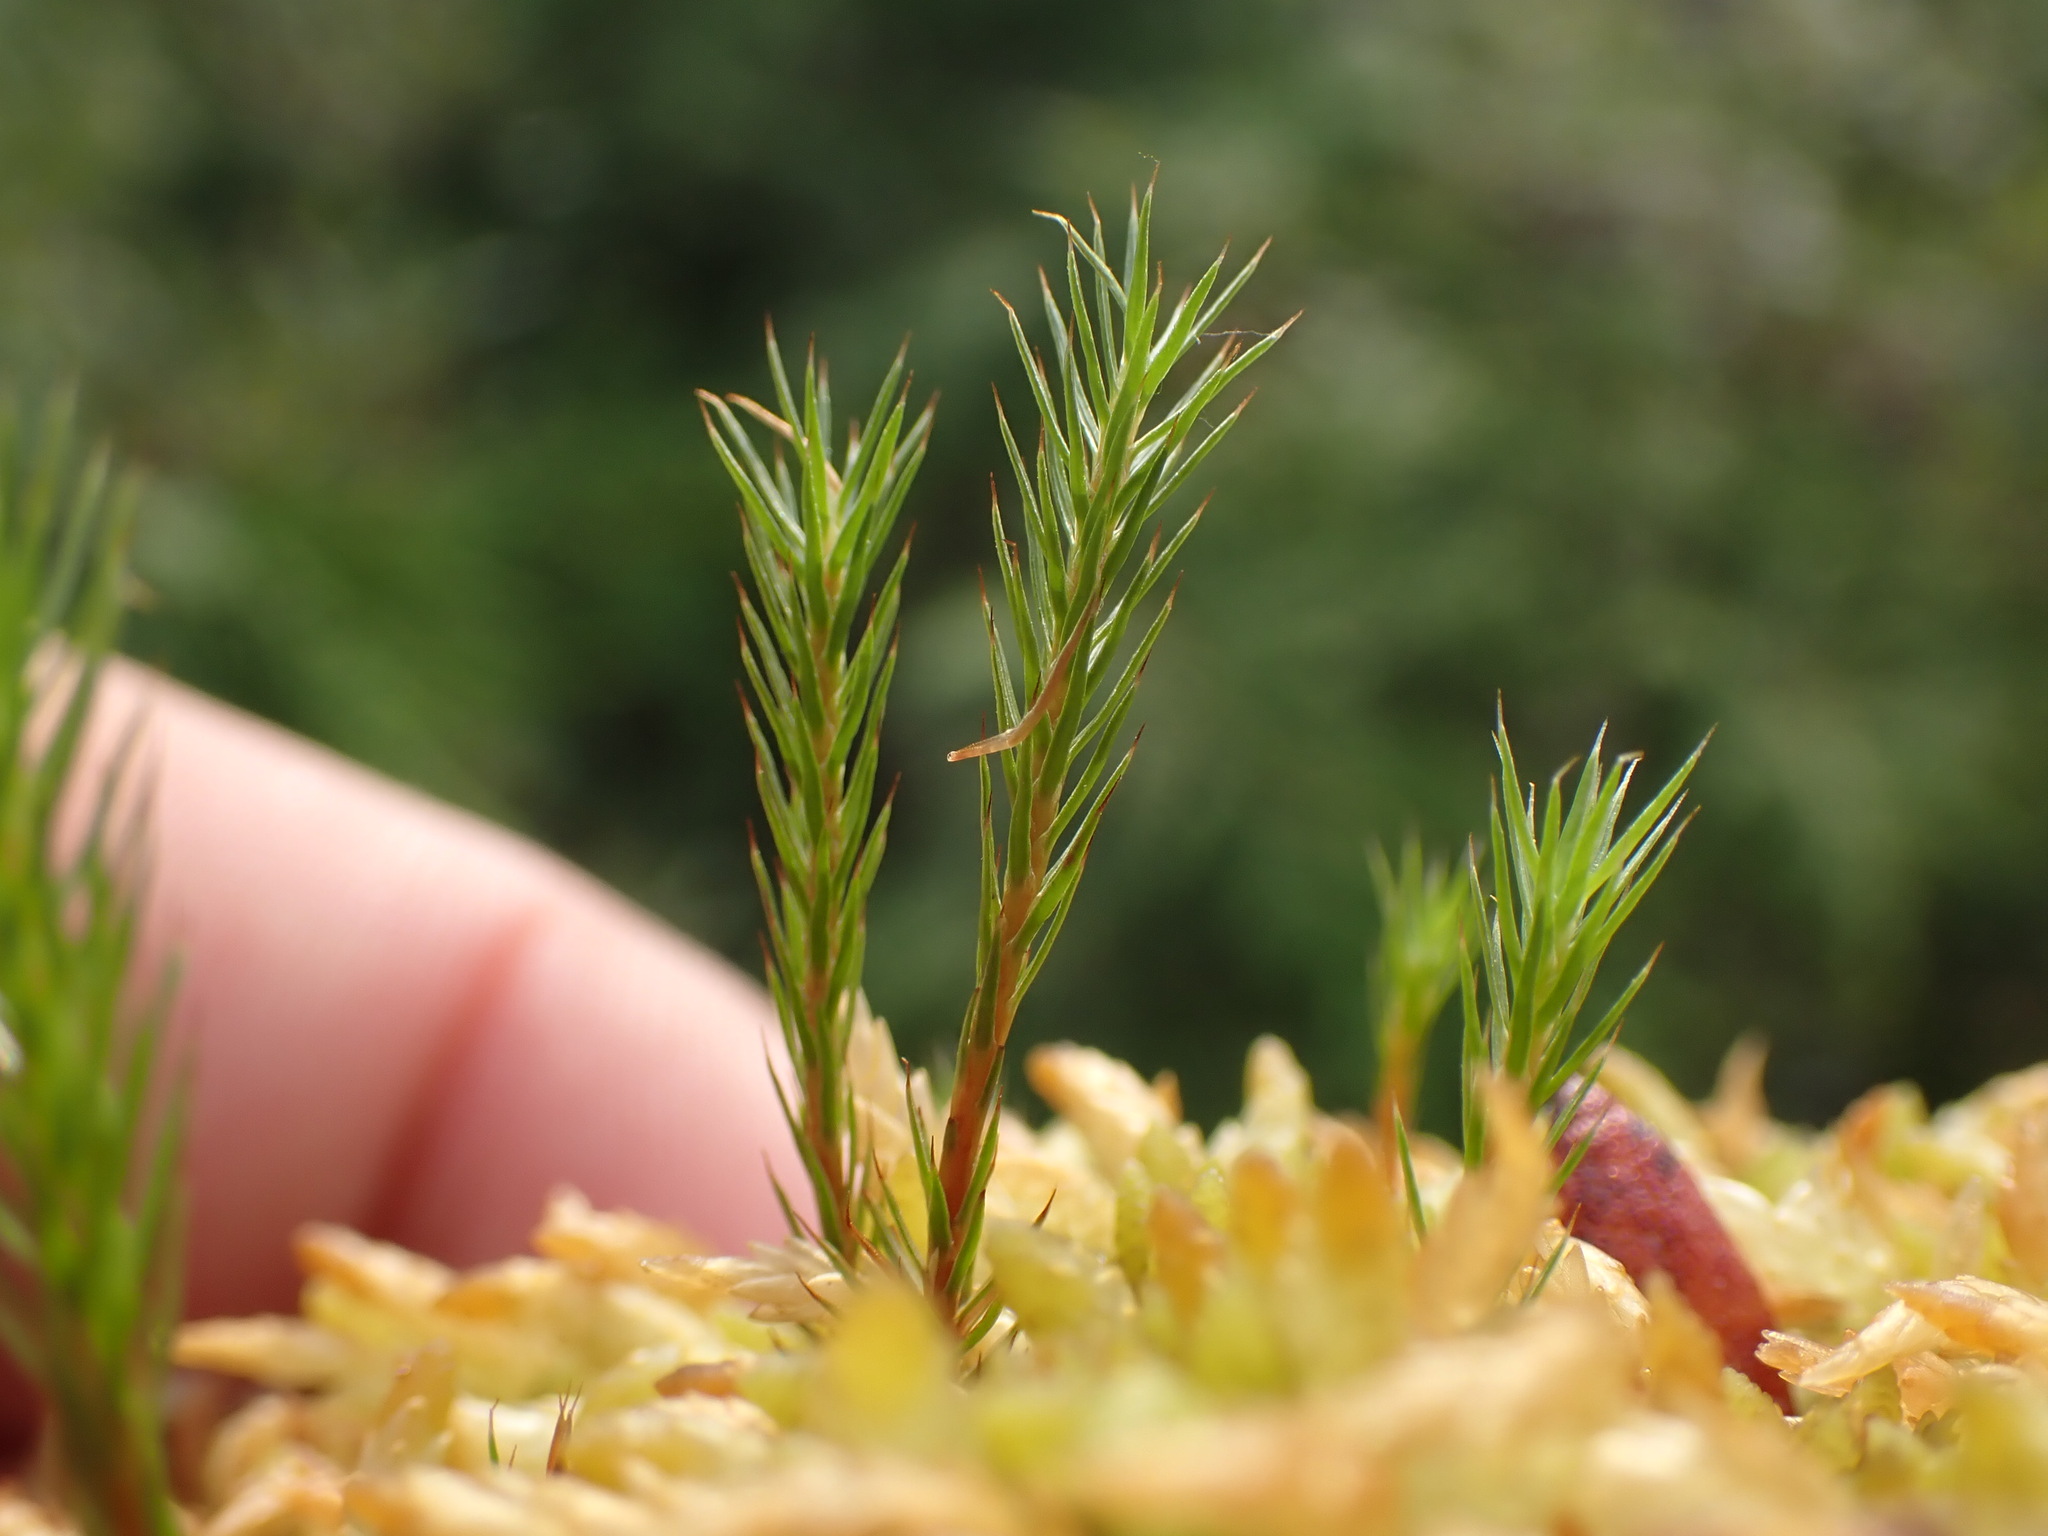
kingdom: Plantae
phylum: Bryophyta
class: Polytrichopsida
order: Polytrichales
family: Polytrichaceae
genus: Polytrichum
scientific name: Polytrichum strictum
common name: Bog haircap moss
